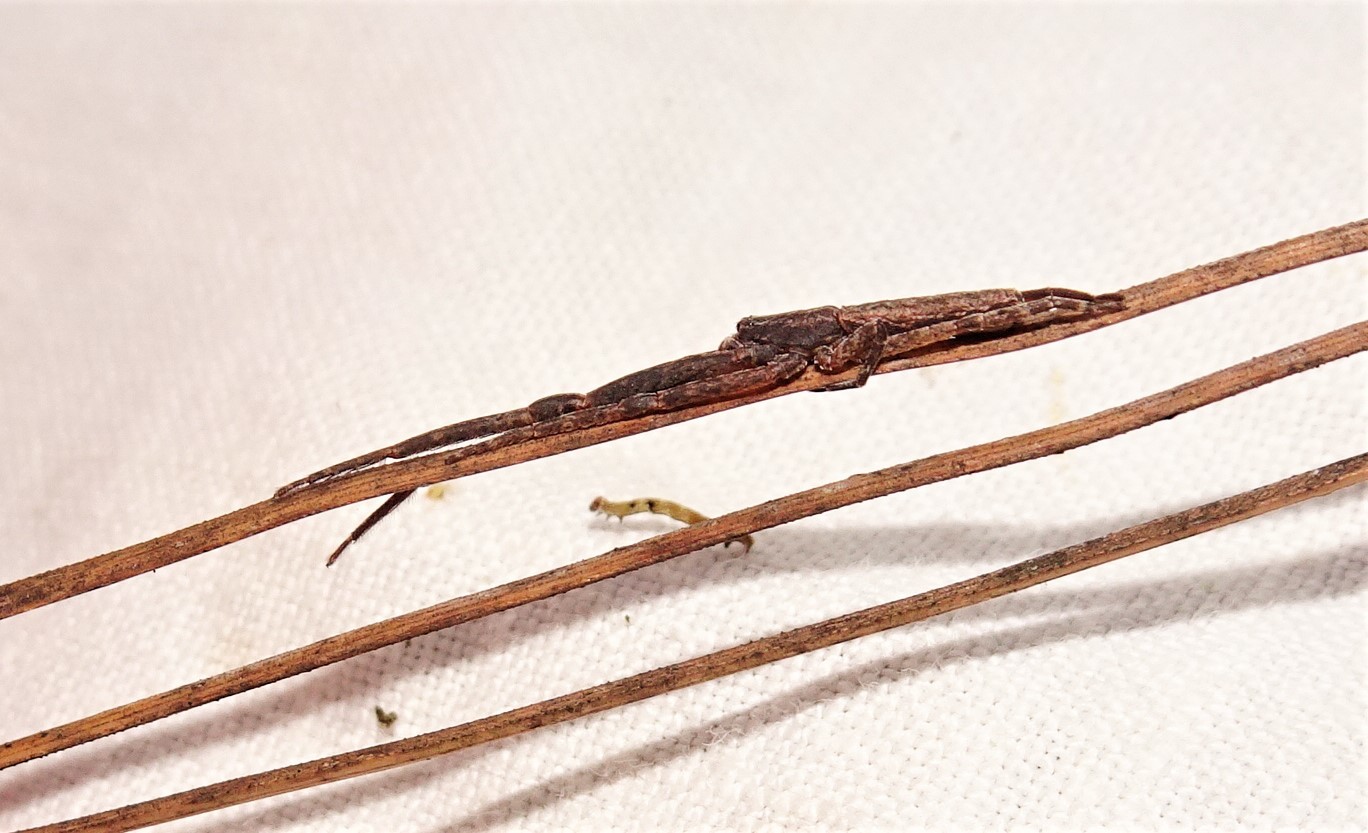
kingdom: Animalia
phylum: Arthropoda
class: Arachnida
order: Araneae
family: Thomisidae
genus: Synalus
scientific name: Synalus angustus
